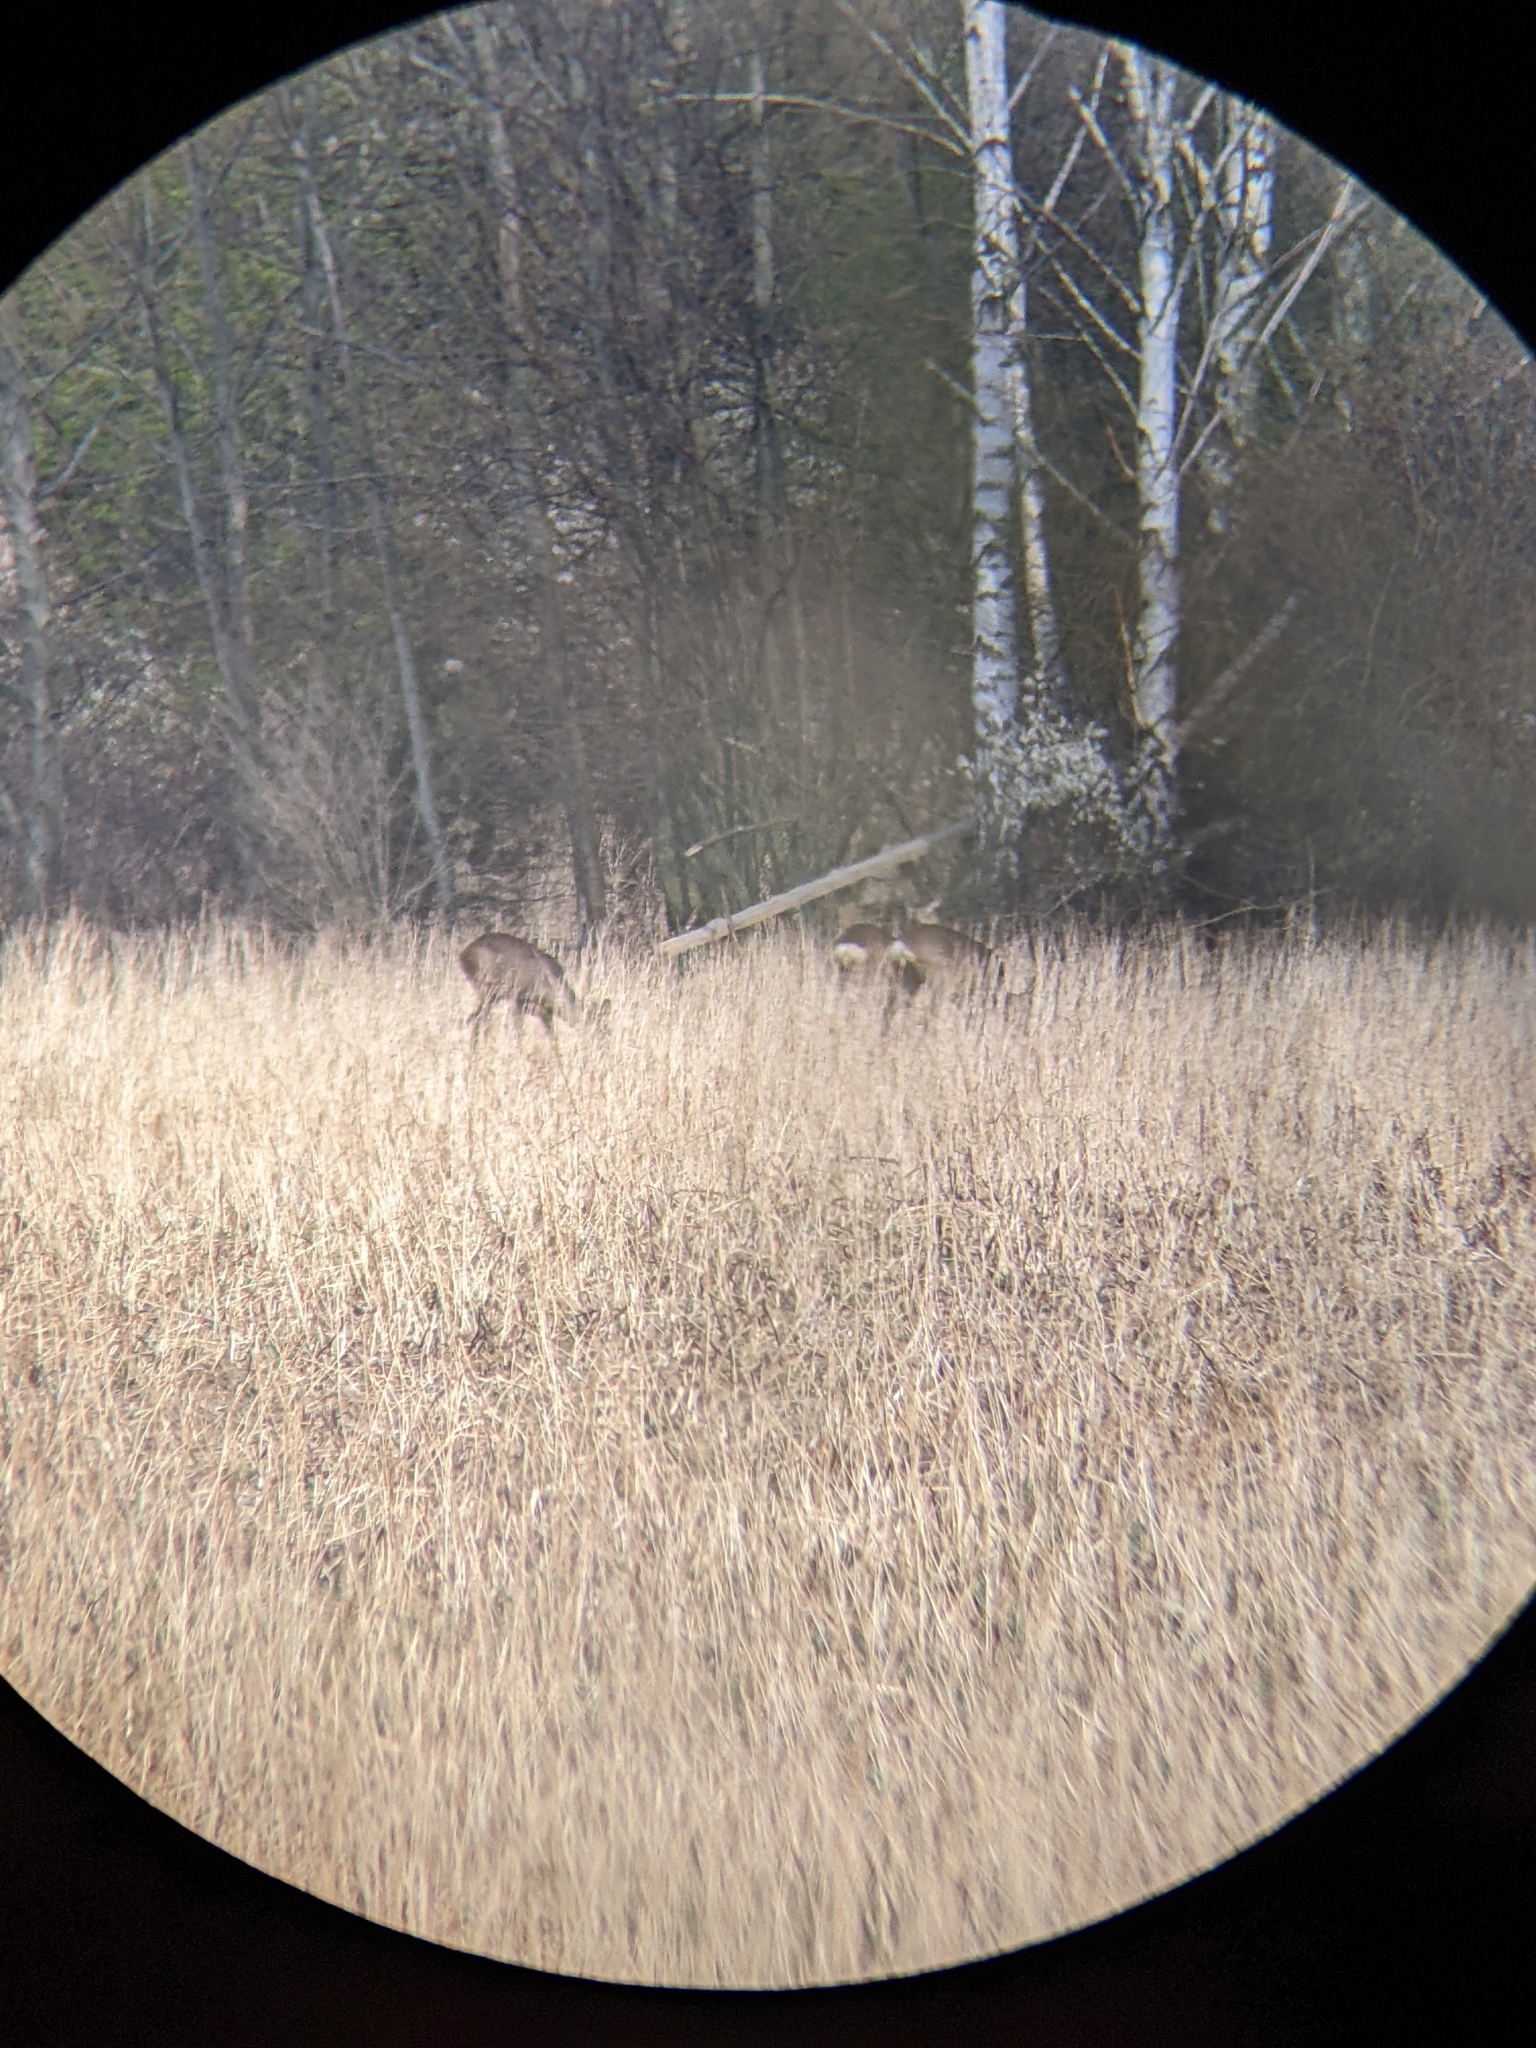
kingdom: Animalia
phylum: Chordata
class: Mammalia
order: Artiodactyla
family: Cervidae
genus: Capreolus
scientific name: Capreolus capreolus
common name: Western roe deer
